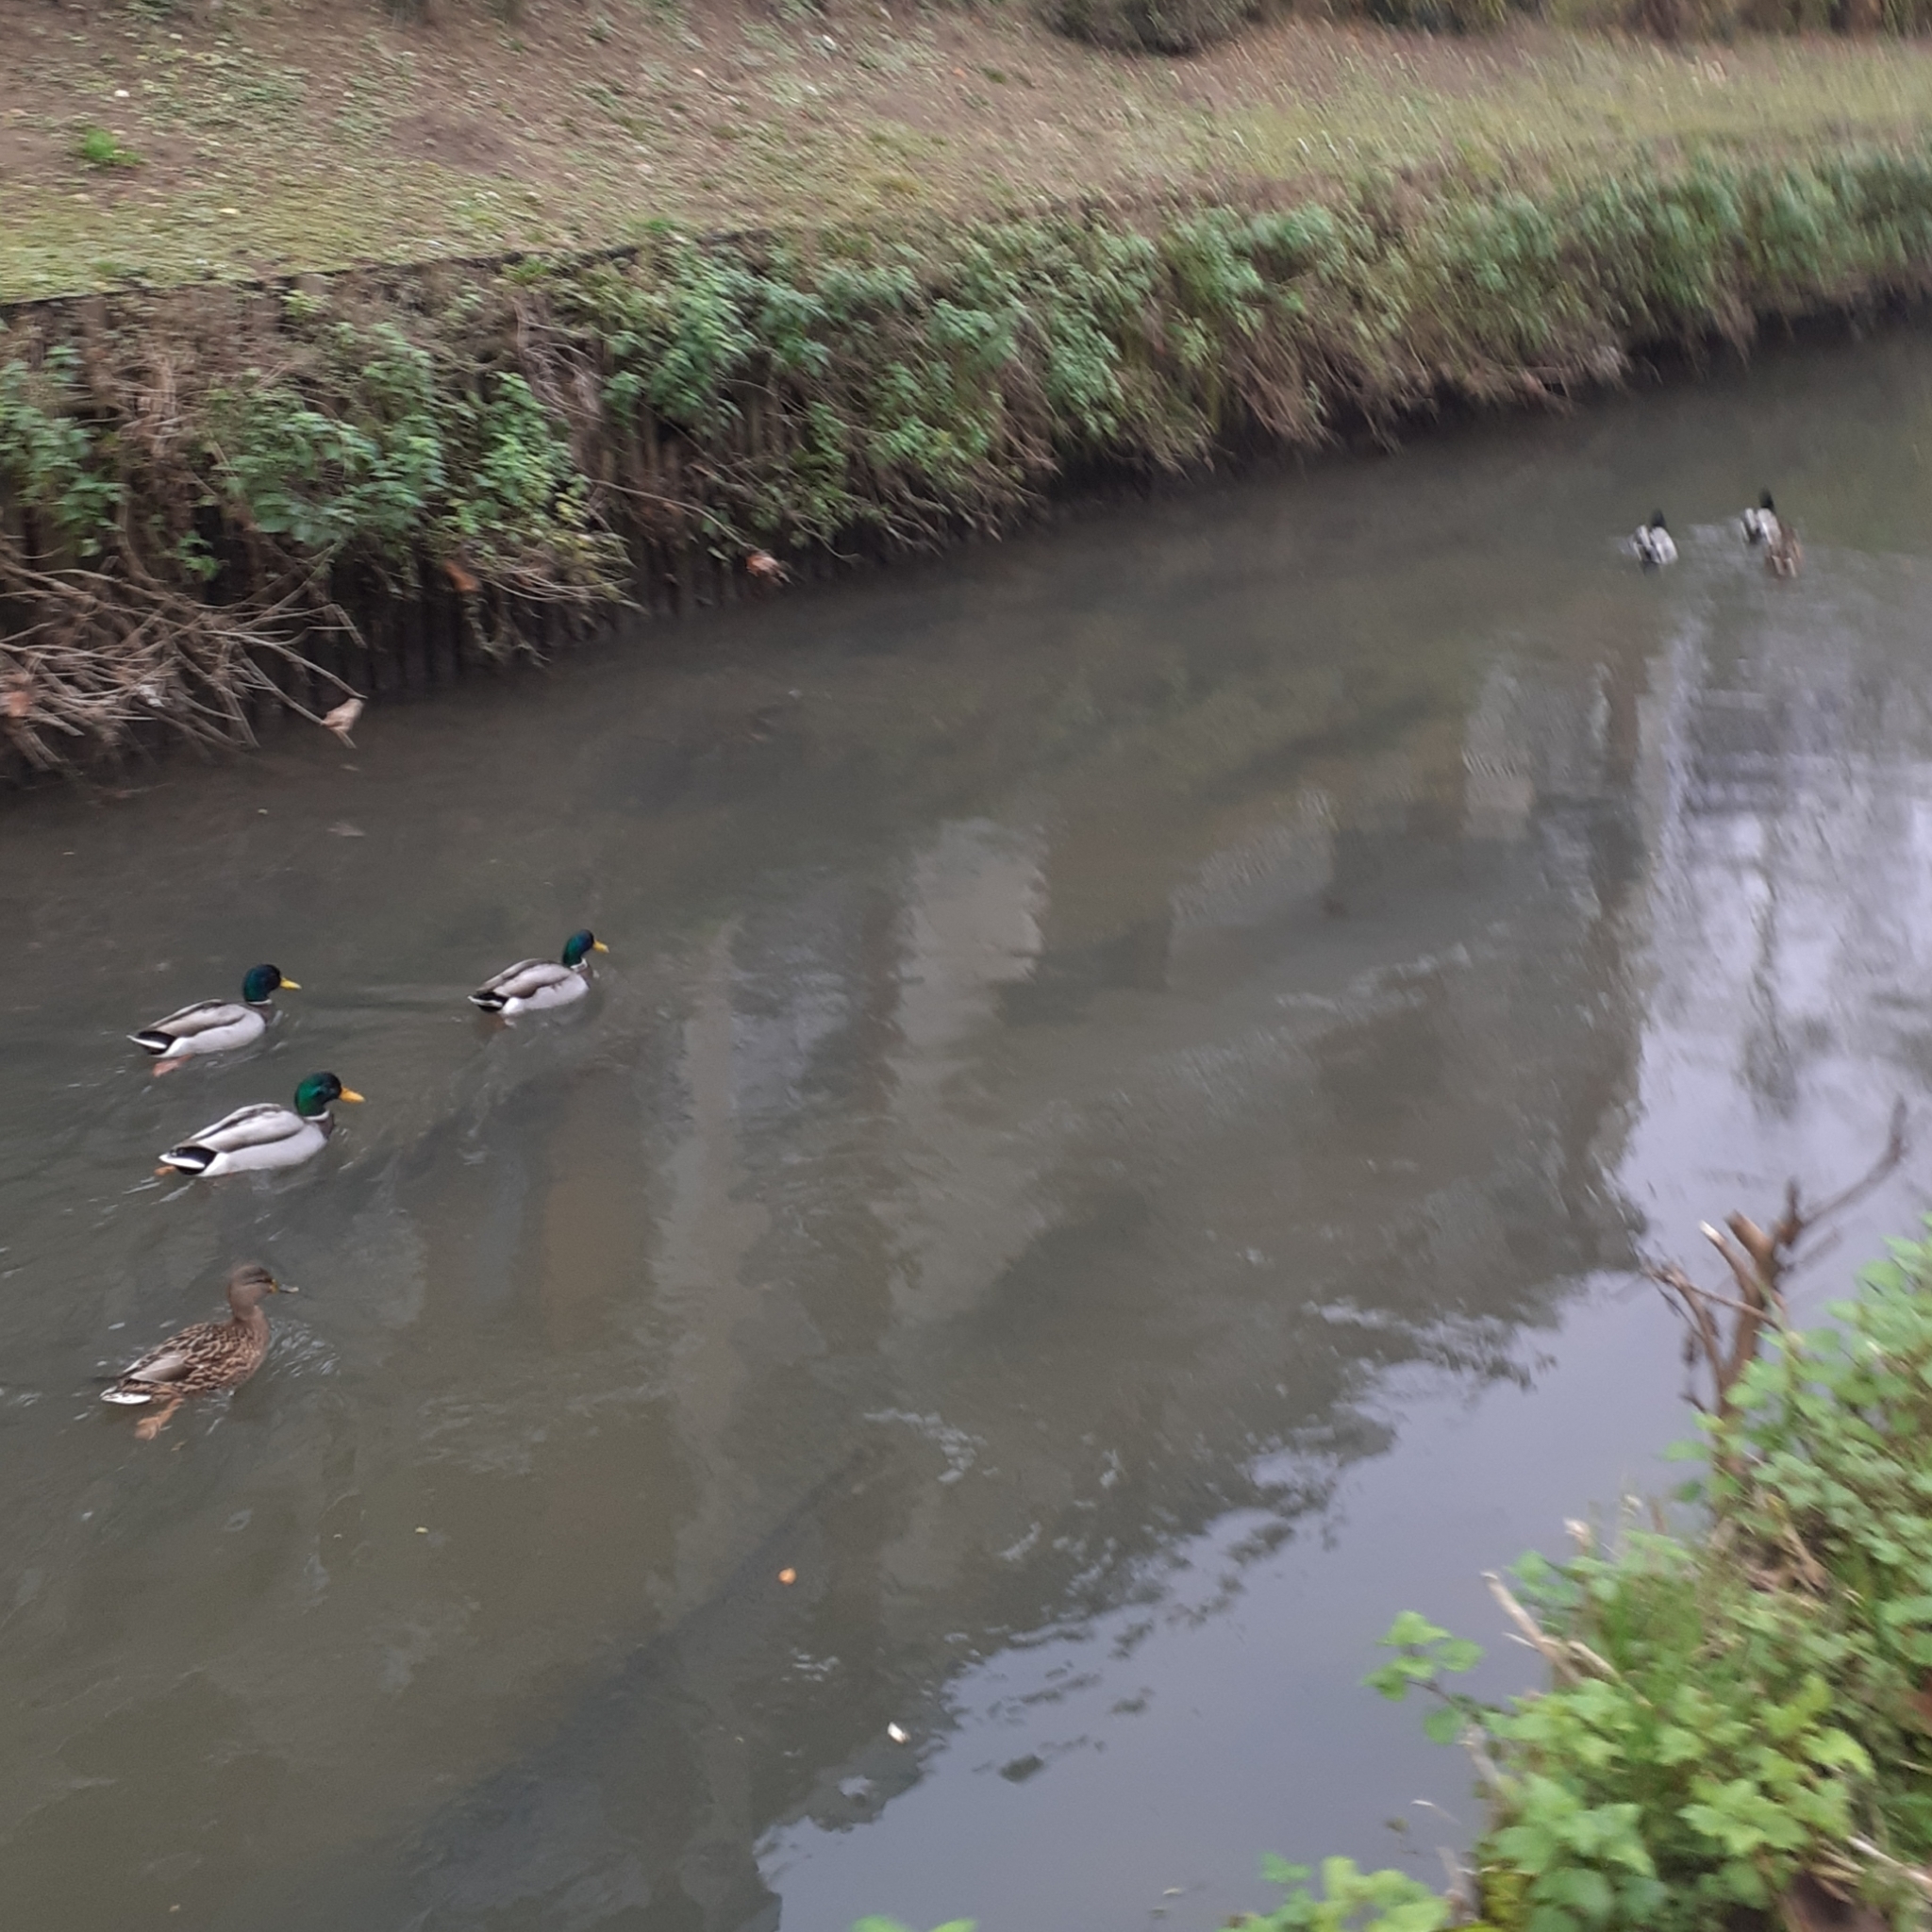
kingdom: Animalia
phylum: Chordata
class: Aves
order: Anseriformes
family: Anatidae
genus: Anas
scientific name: Anas platyrhynchos
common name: Mallard
